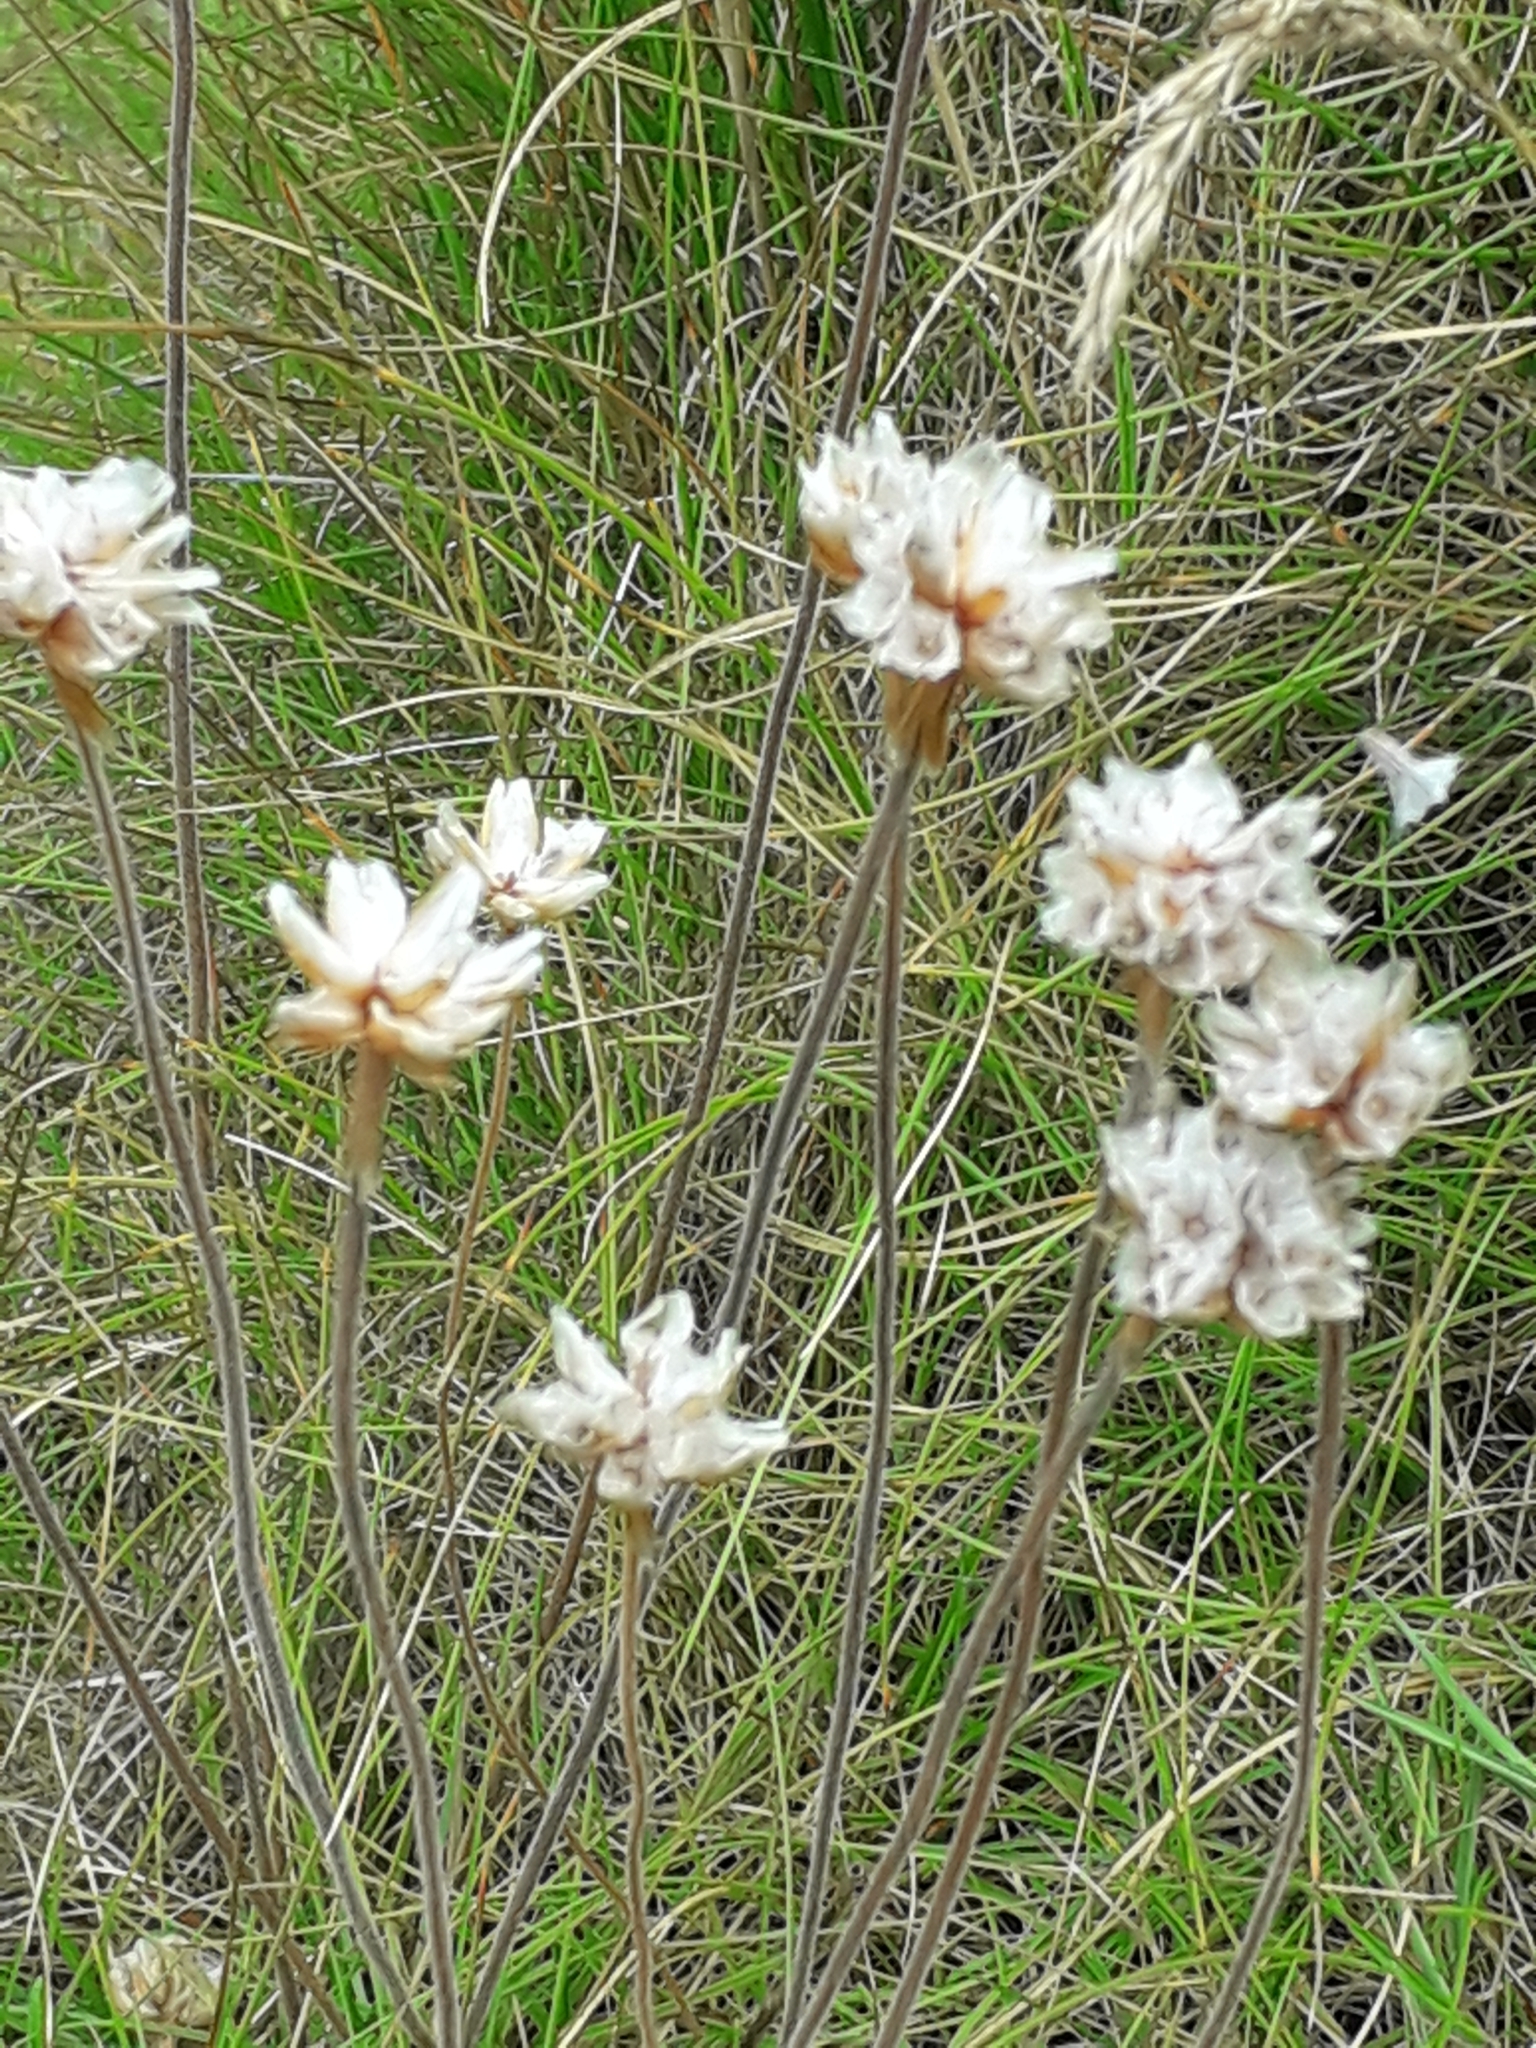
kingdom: Plantae
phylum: Tracheophyta
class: Magnoliopsida
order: Caryophyllales
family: Plumbaginaceae
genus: Armeria
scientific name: Armeria maritima
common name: Thrift
